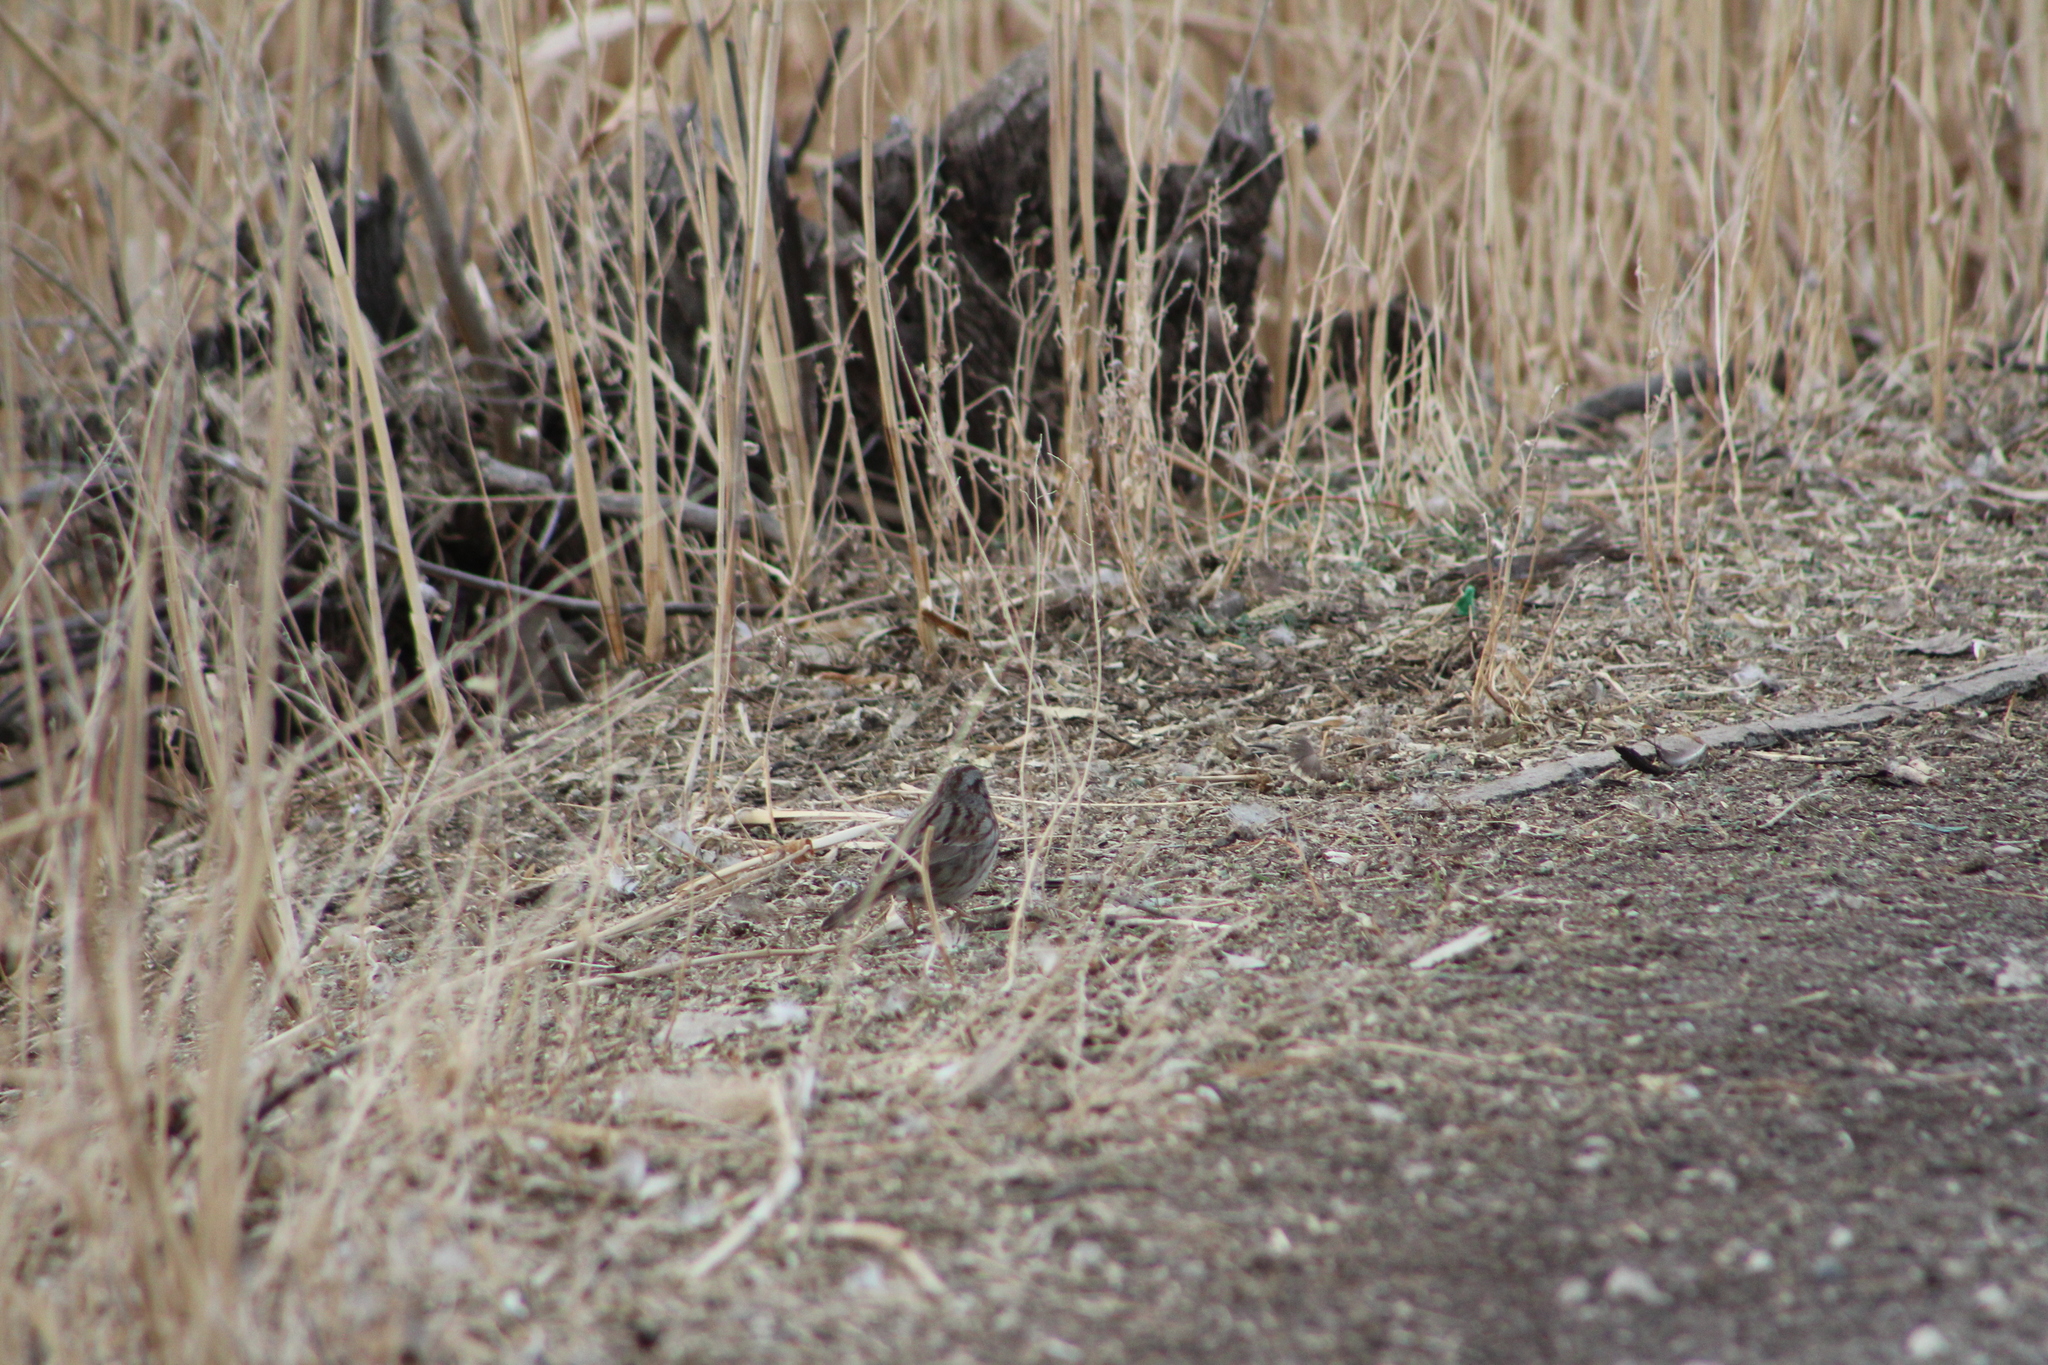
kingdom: Animalia
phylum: Chordata
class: Aves
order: Passeriformes
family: Passerellidae
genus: Melospiza
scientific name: Melospiza melodia
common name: Song sparrow
